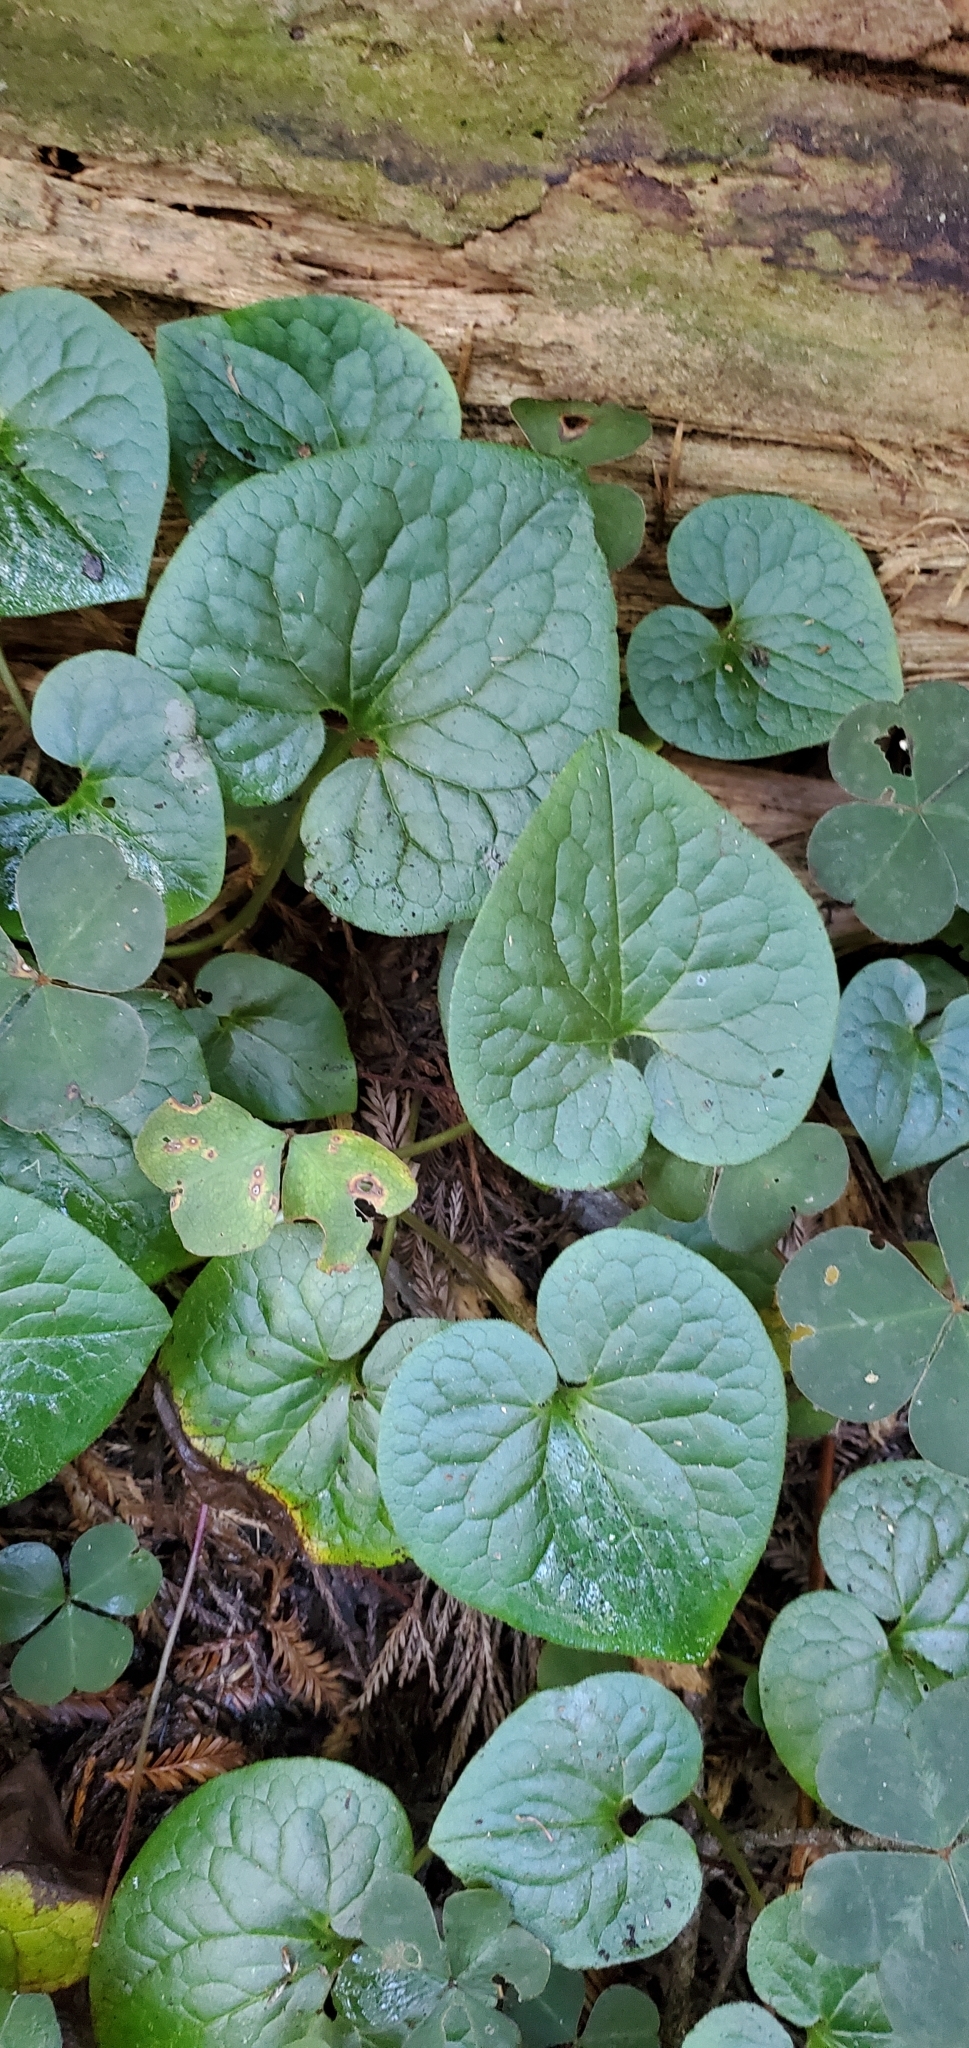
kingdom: Plantae
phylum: Tracheophyta
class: Magnoliopsida
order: Piperales
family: Aristolochiaceae
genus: Asarum
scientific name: Asarum caudatum
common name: Wild ginger
